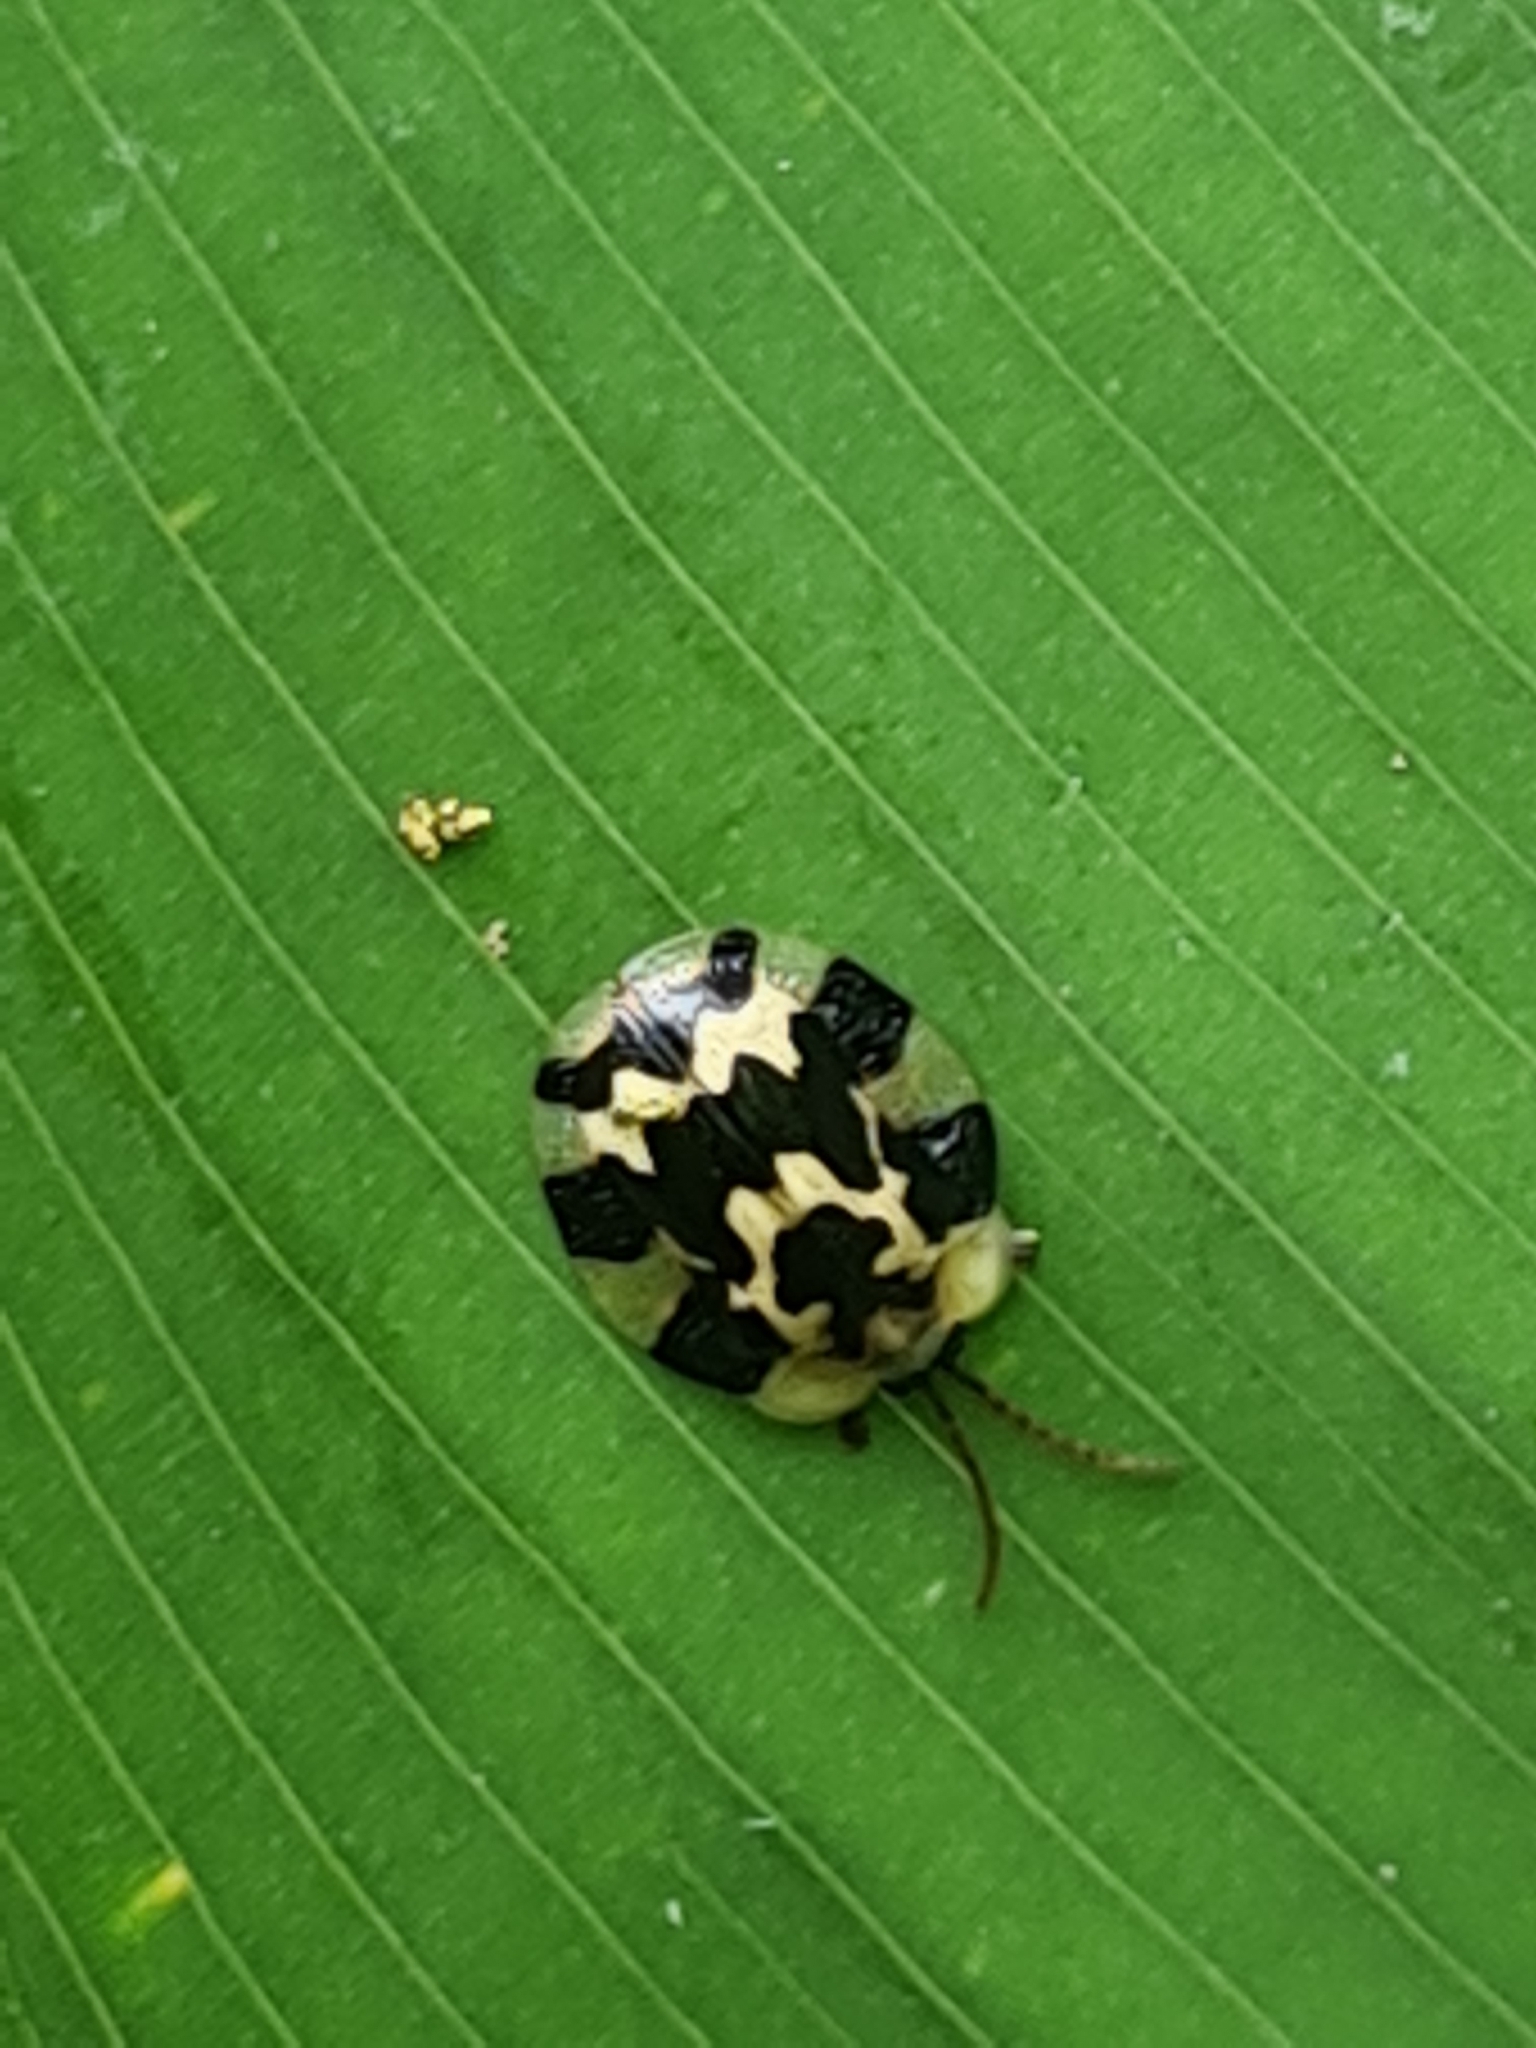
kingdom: Animalia
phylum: Arthropoda
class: Insecta
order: Coleoptera
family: Chrysomelidae
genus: Aslamidium
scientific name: Aslamidium capense
